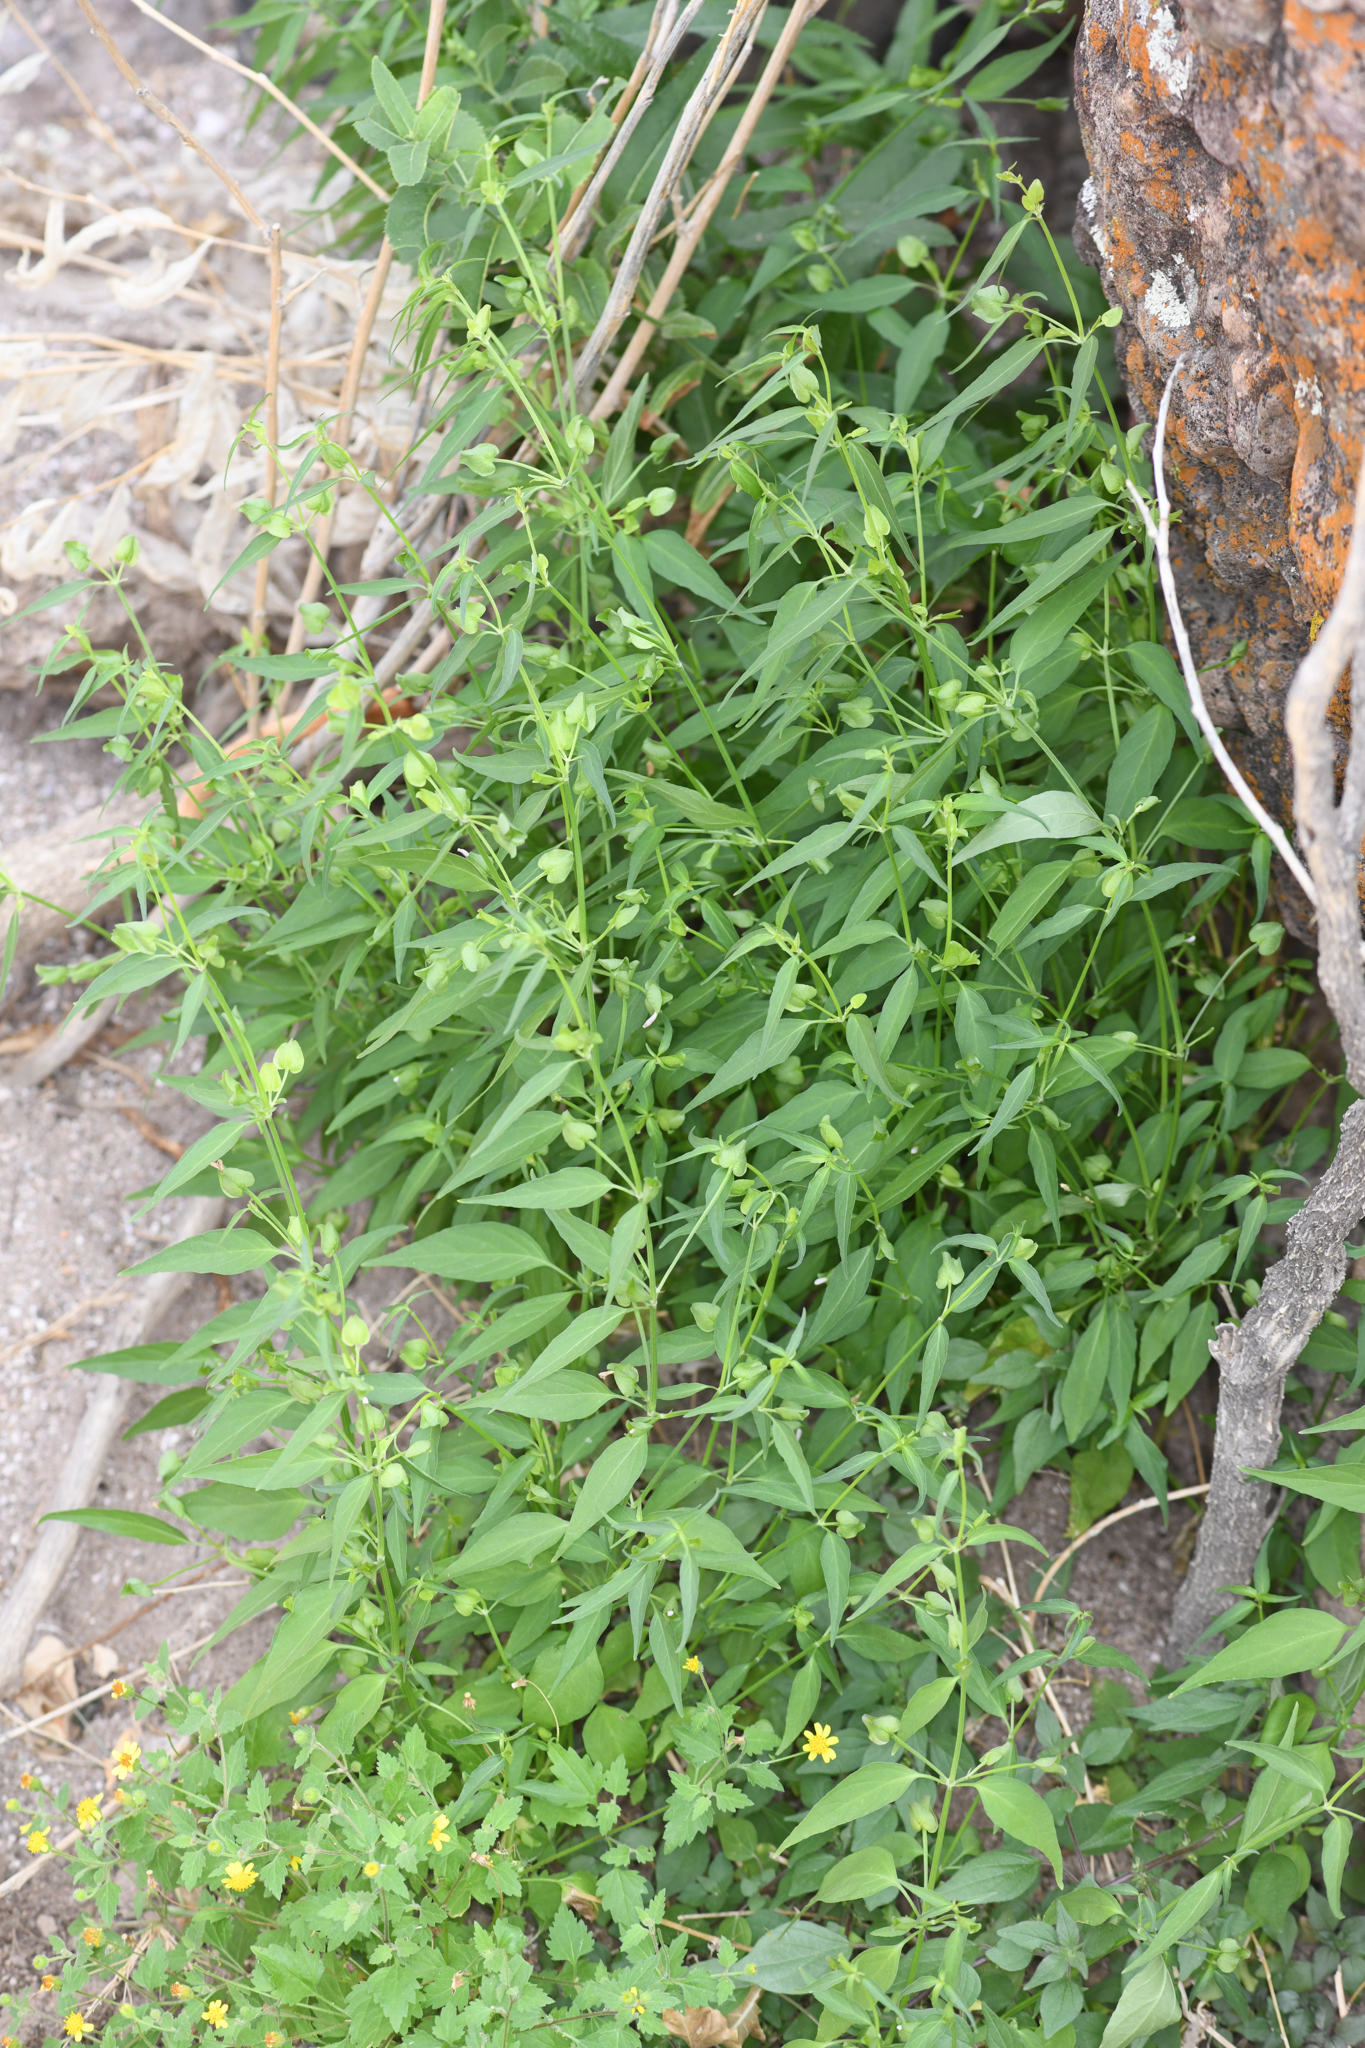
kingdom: Plantae
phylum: Tracheophyta
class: Magnoliopsida
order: Lamiales
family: Acanthaceae
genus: Dicliptera
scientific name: Dicliptera resupinata
